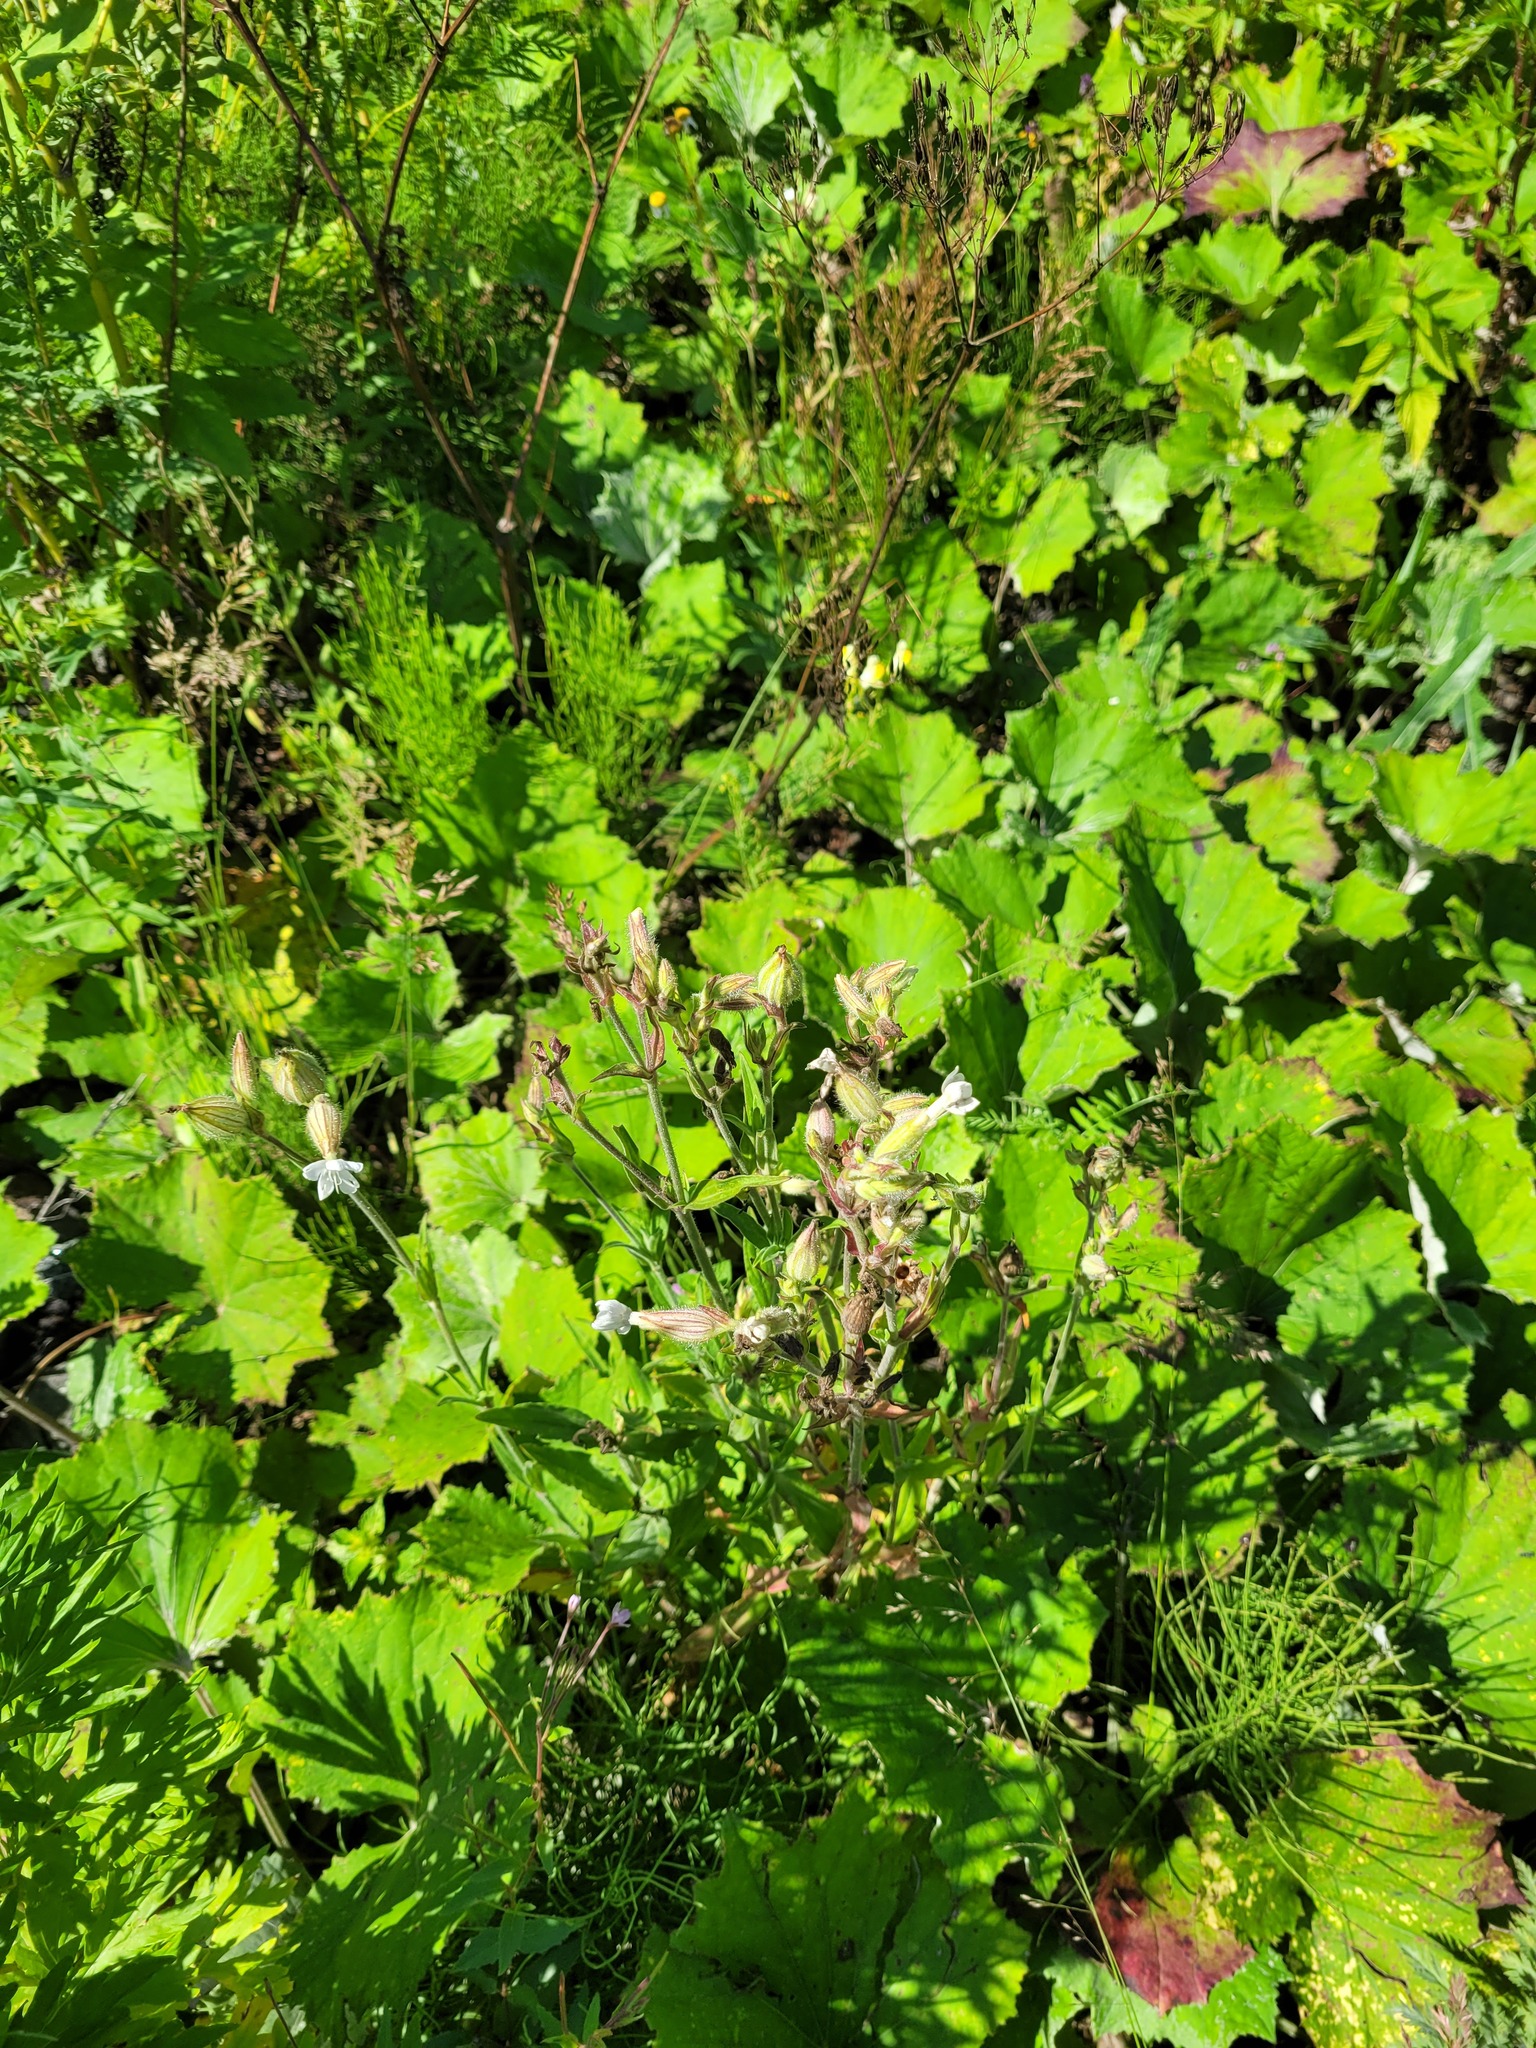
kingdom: Plantae
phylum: Tracheophyta
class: Magnoliopsida
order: Caryophyllales
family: Caryophyllaceae
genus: Silene
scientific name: Silene latifolia
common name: White campion
